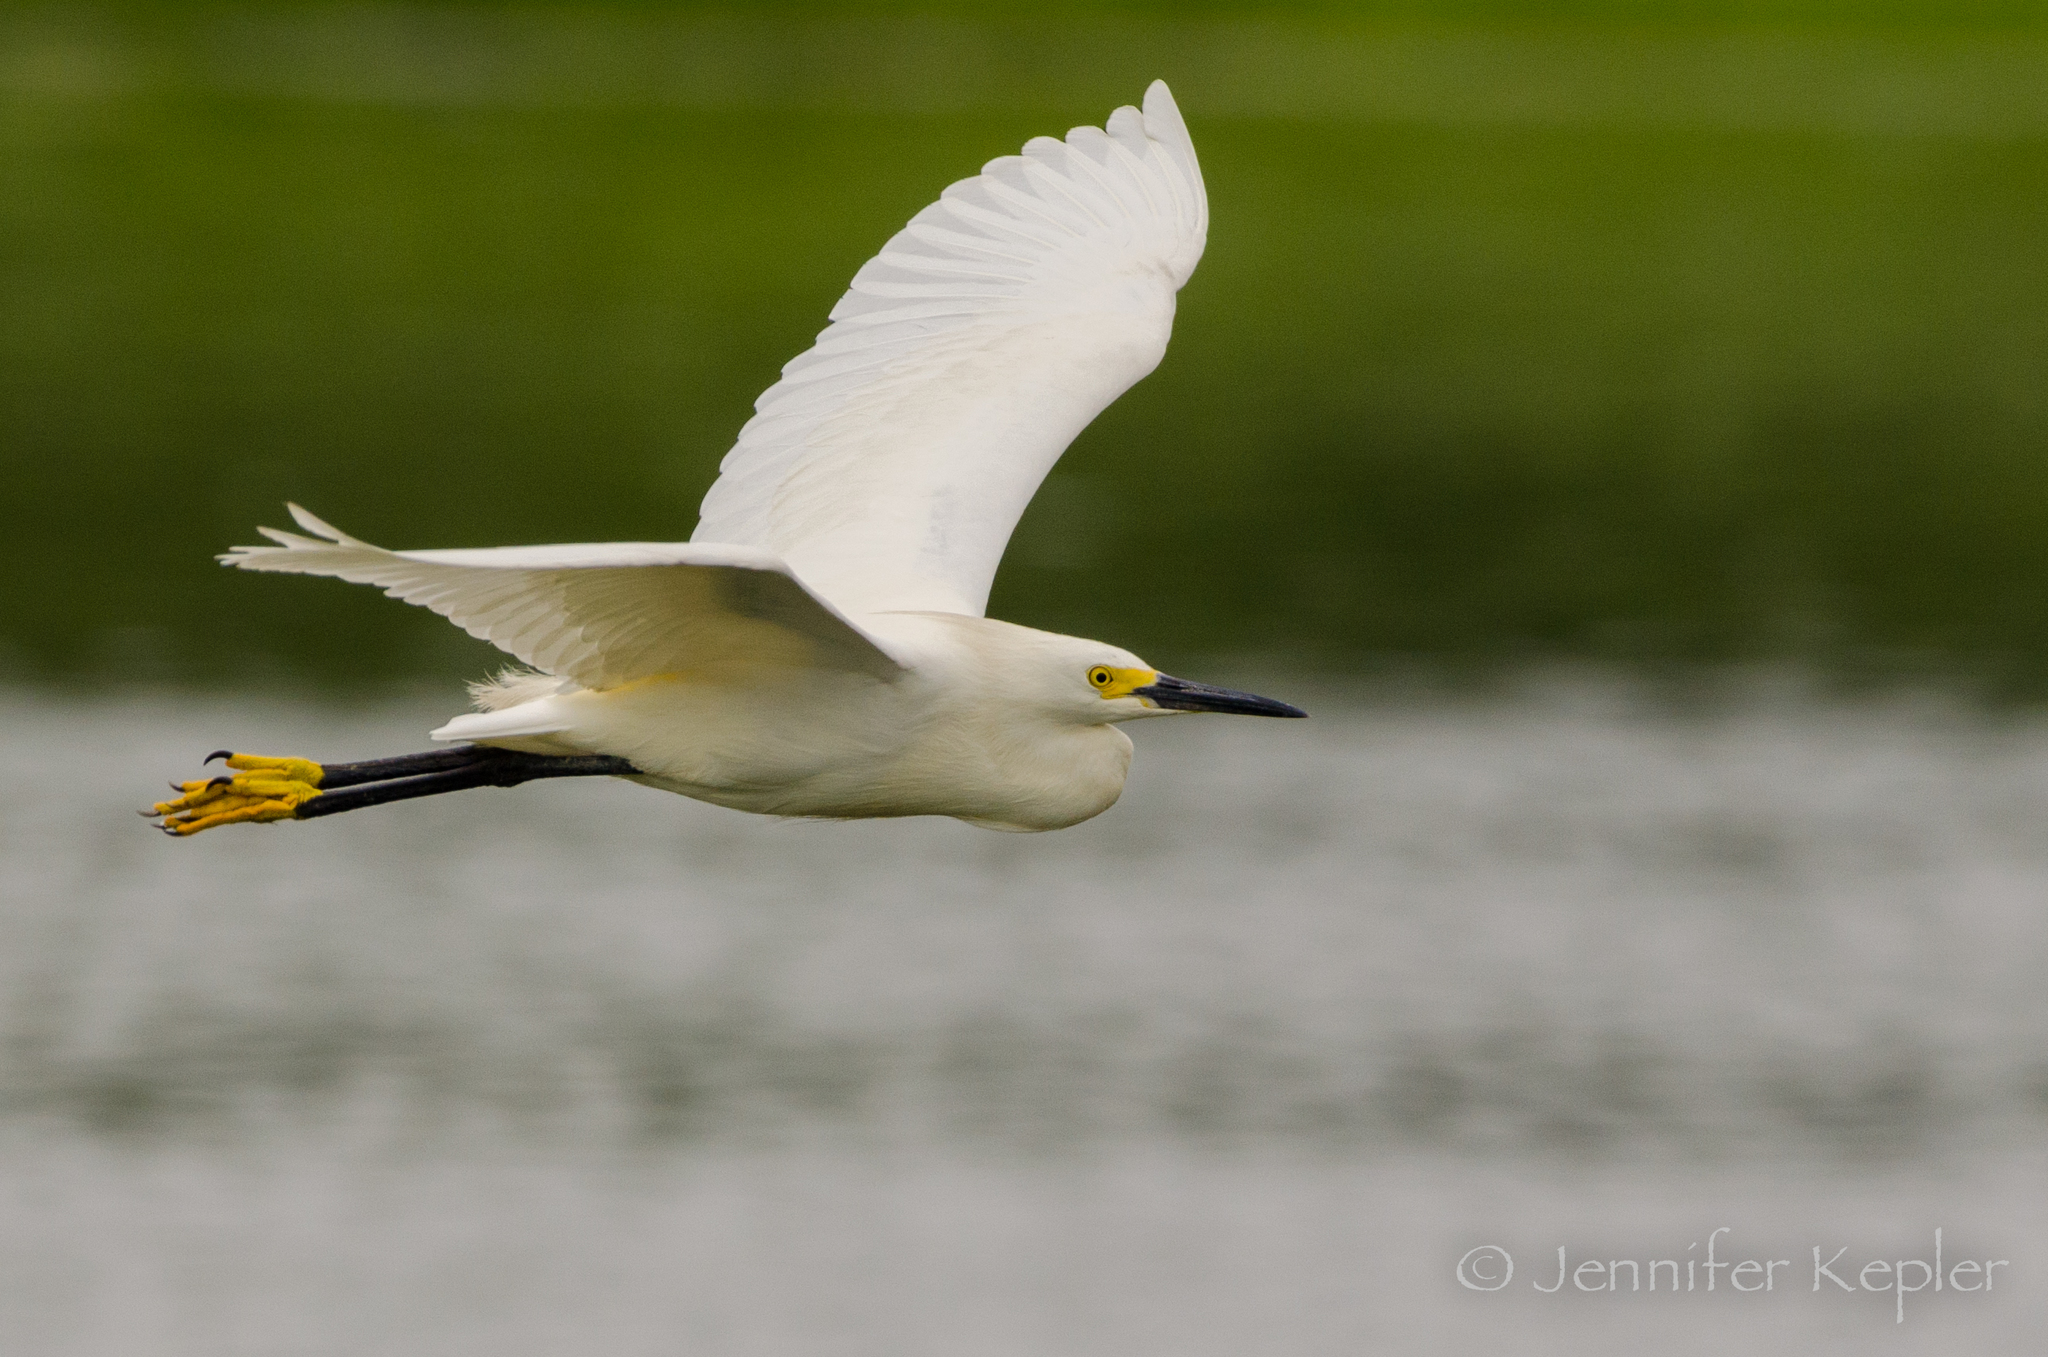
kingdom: Animalia
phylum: Chordata
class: Aves
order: Pelecaniformes
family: Ardeidae
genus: Egretta
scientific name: Egretta thula
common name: Snowy egret
